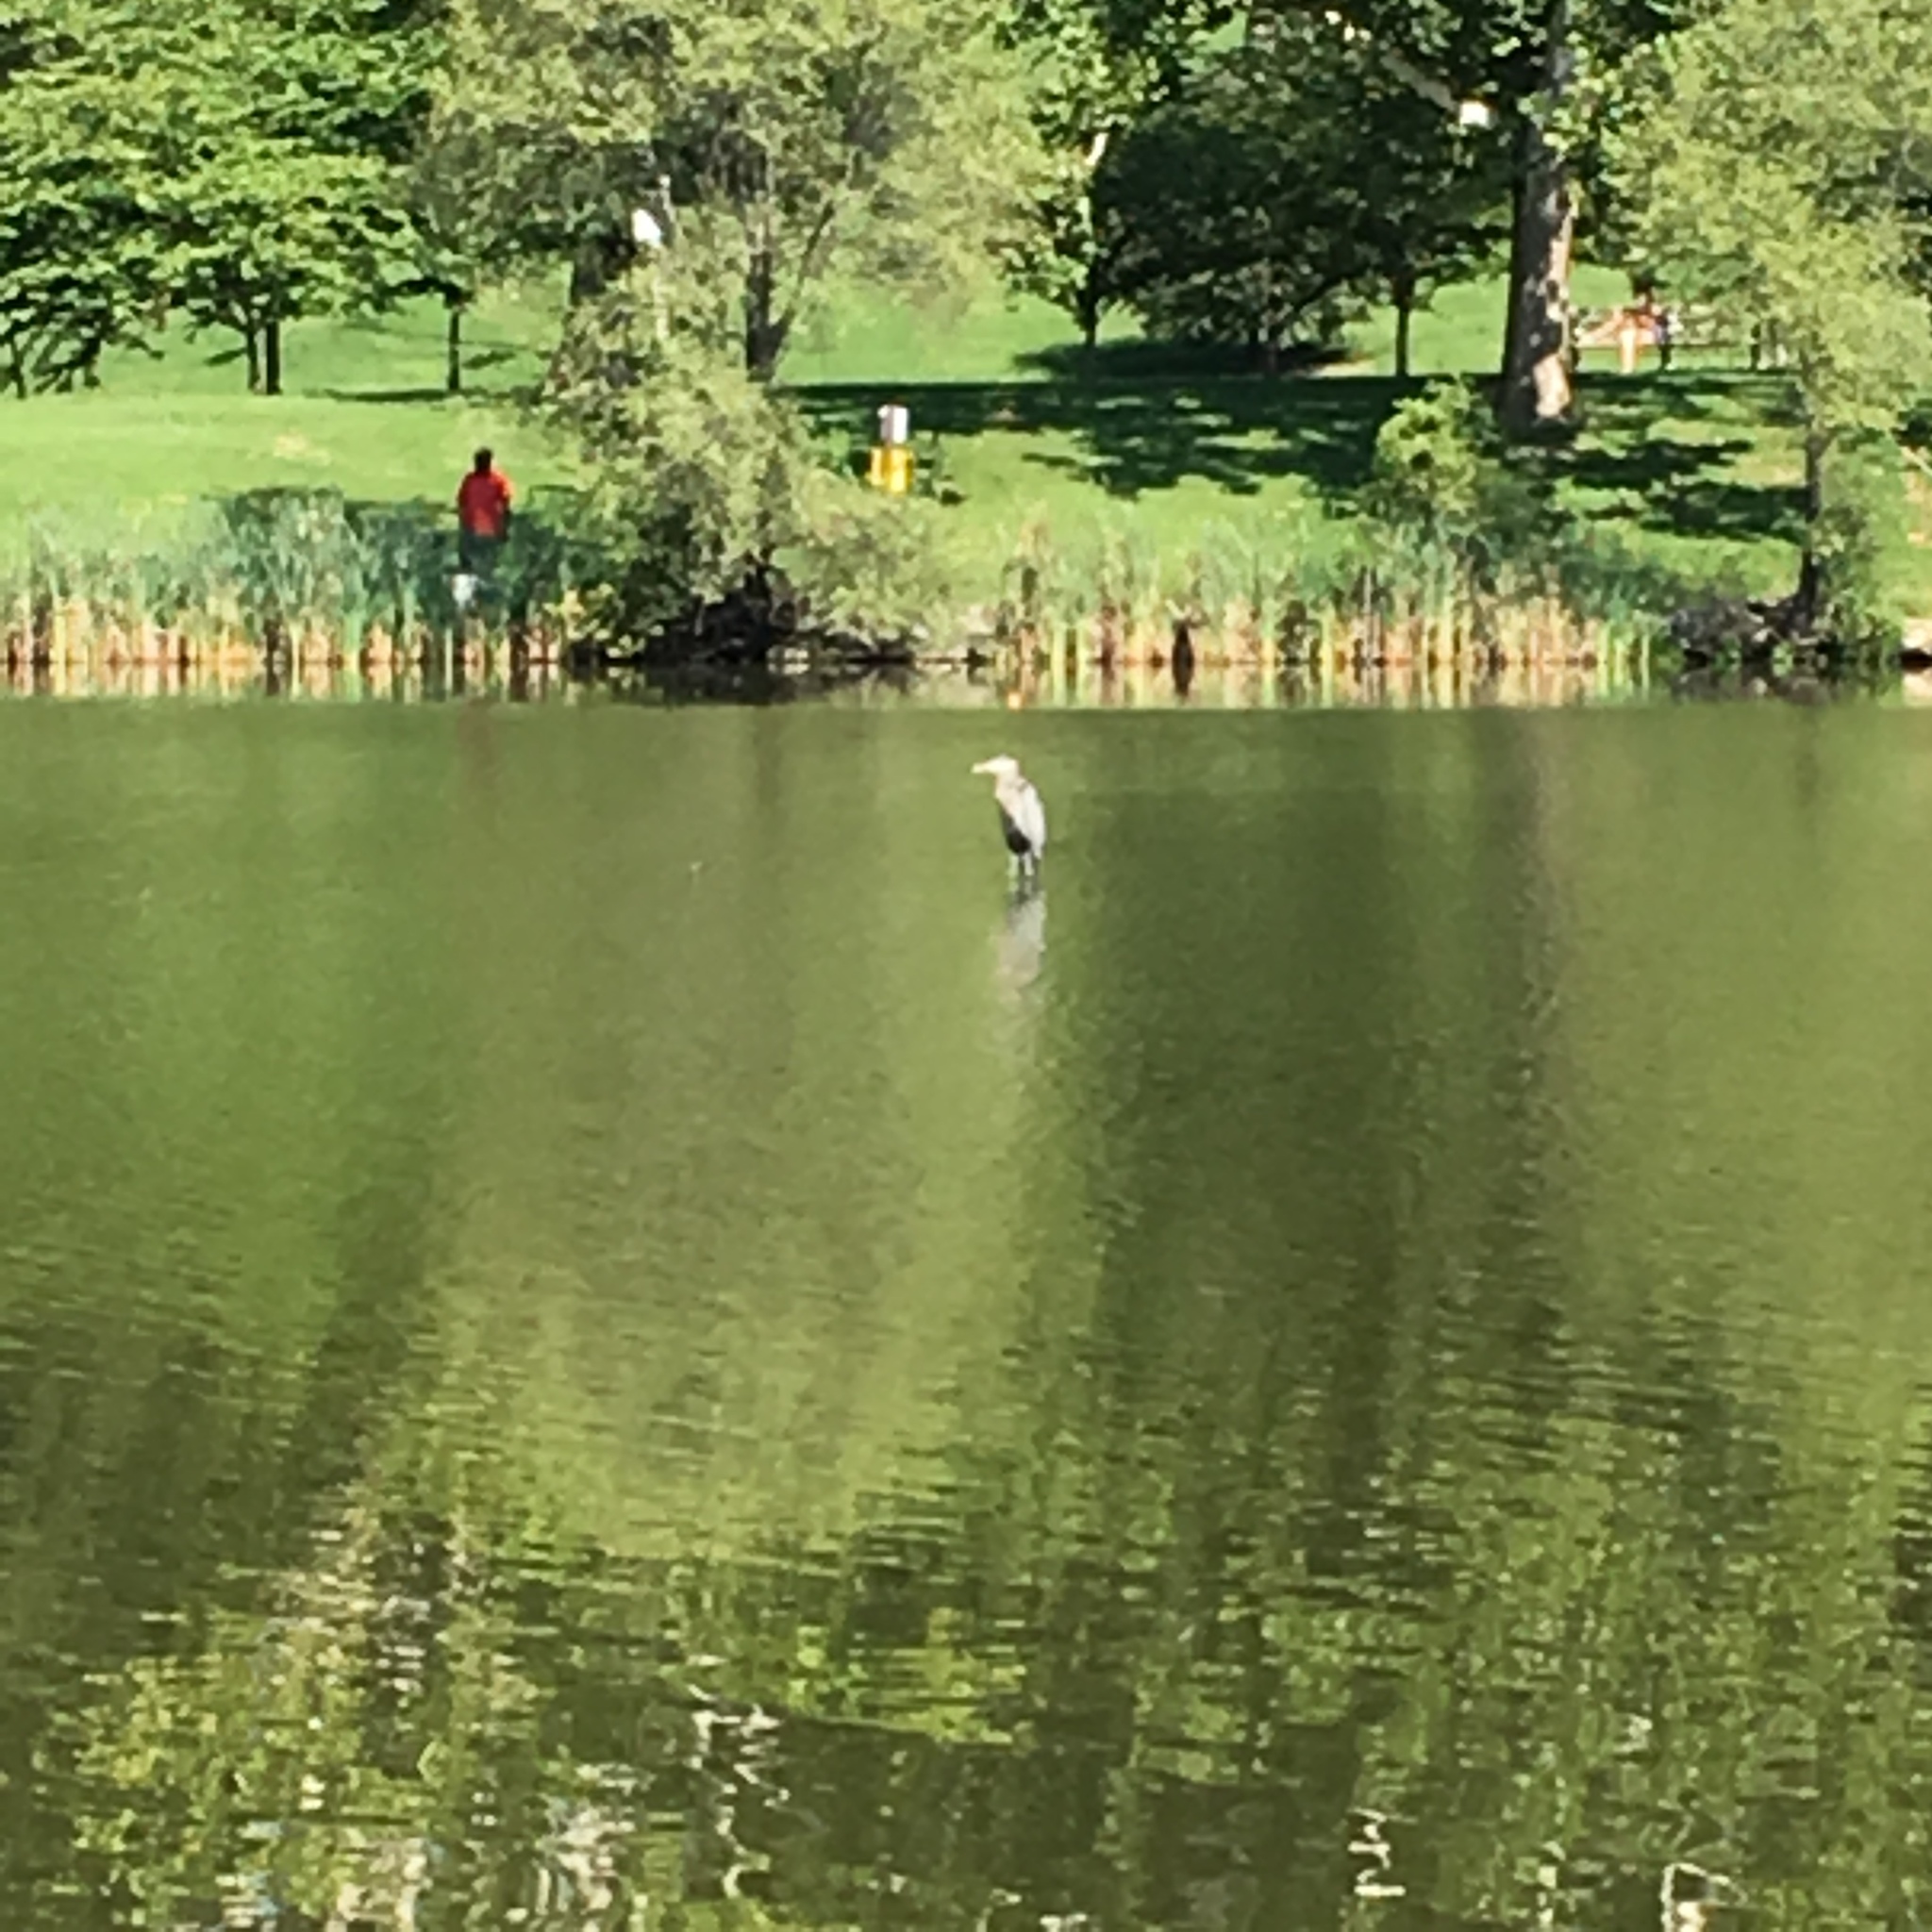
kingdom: Animalia
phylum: Chordata
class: Aves
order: Pelecaniformes
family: Ardeidae
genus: Ardea
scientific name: Ardea herodias
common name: Great blue heron
